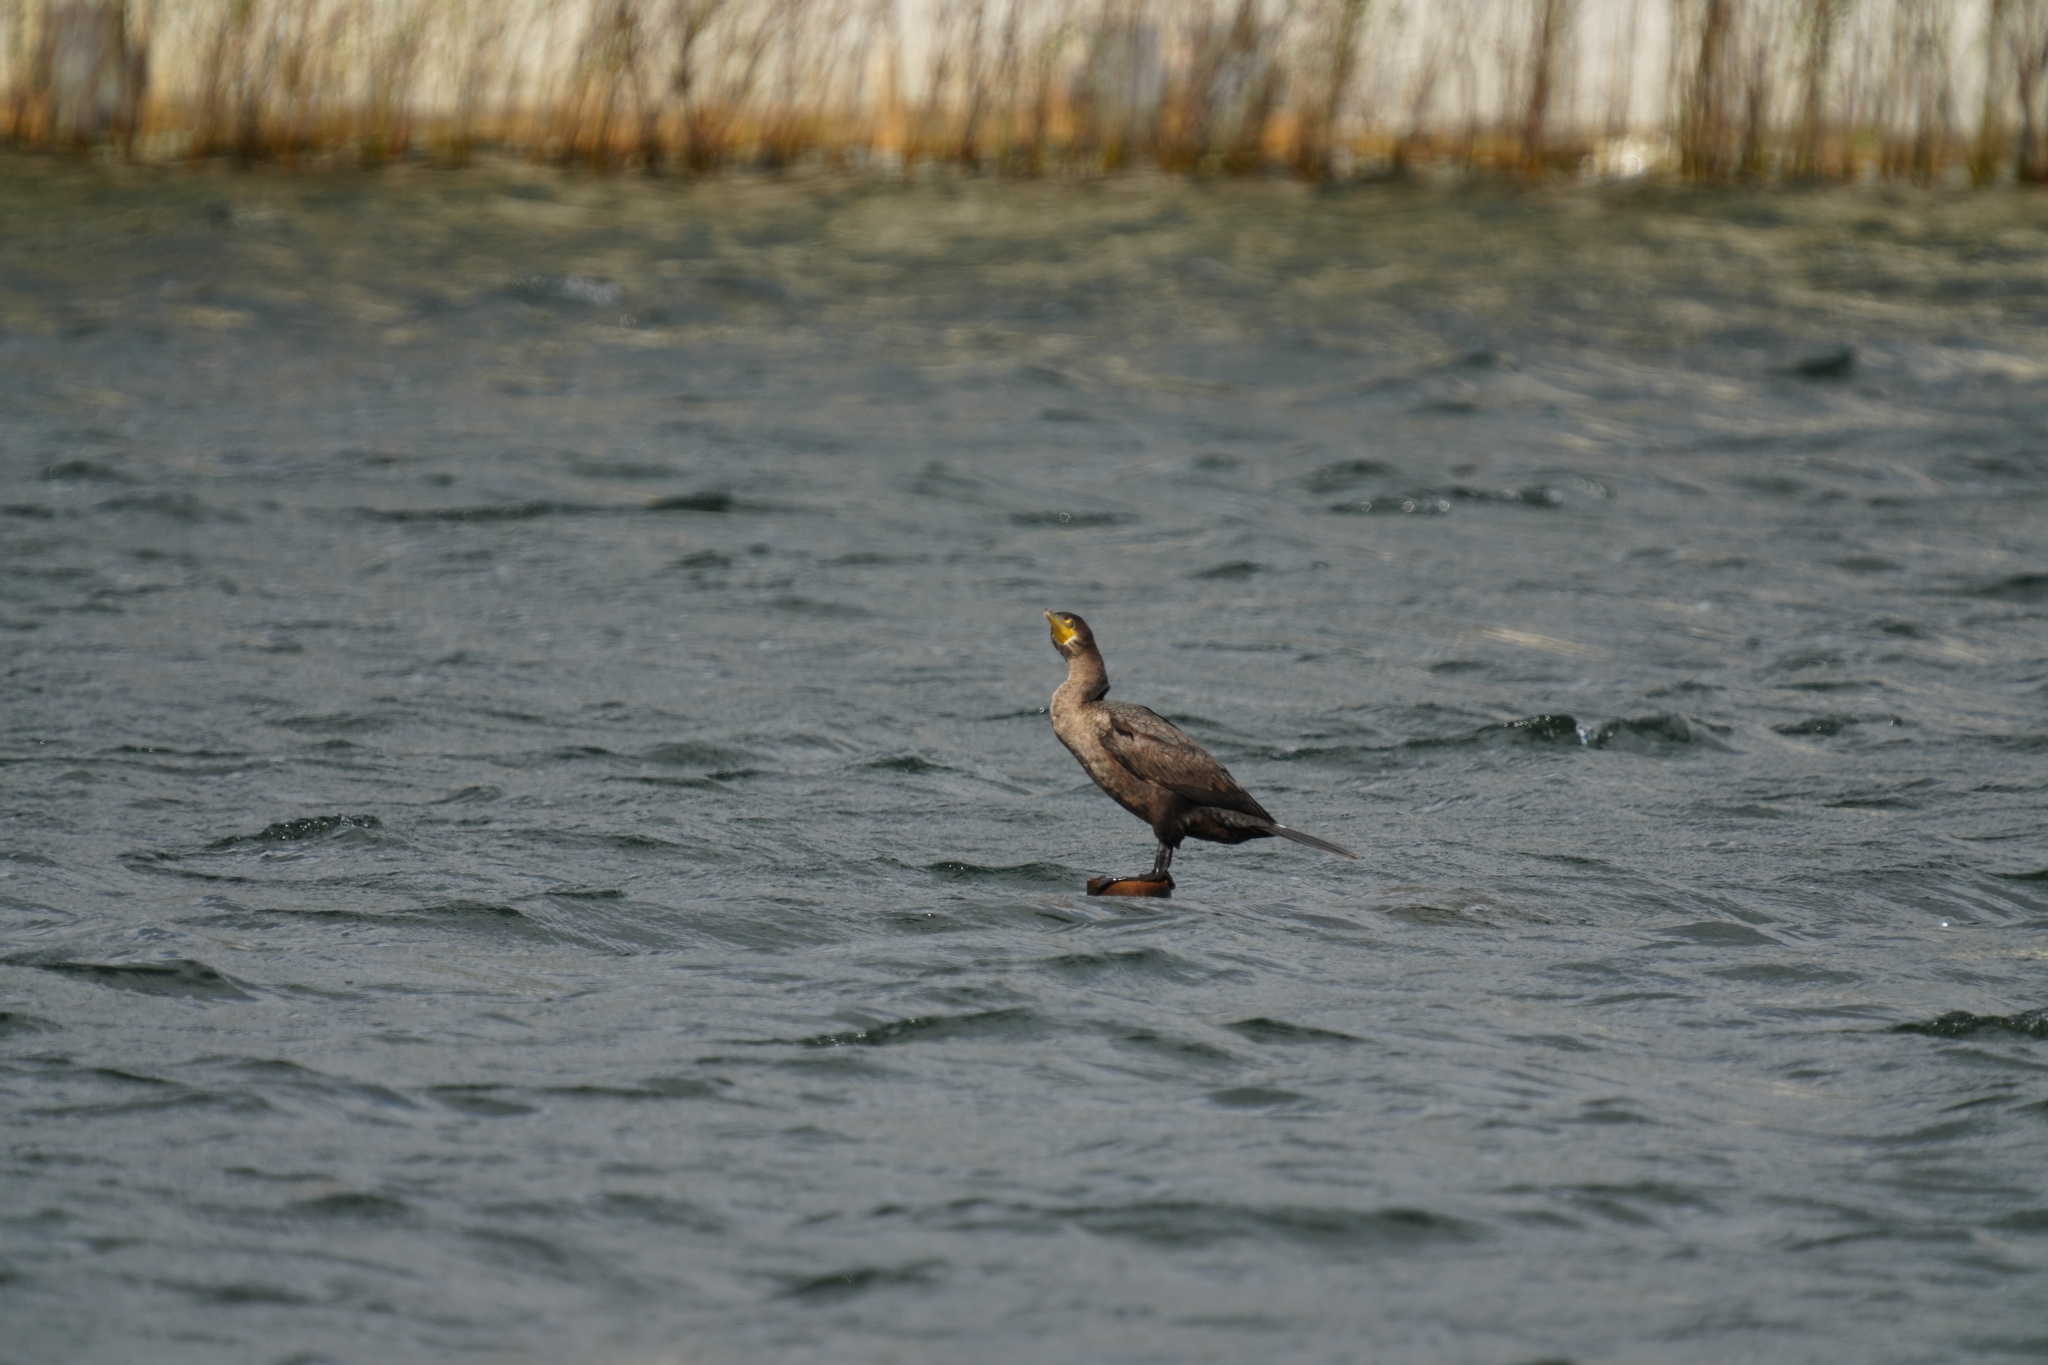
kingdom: Animalia
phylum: Chordata
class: Aves
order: Suliformes
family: Phalacrocoracidae
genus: Phalacrocorax
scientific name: Phalacrocorax auritus
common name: Double-crested cormorant
